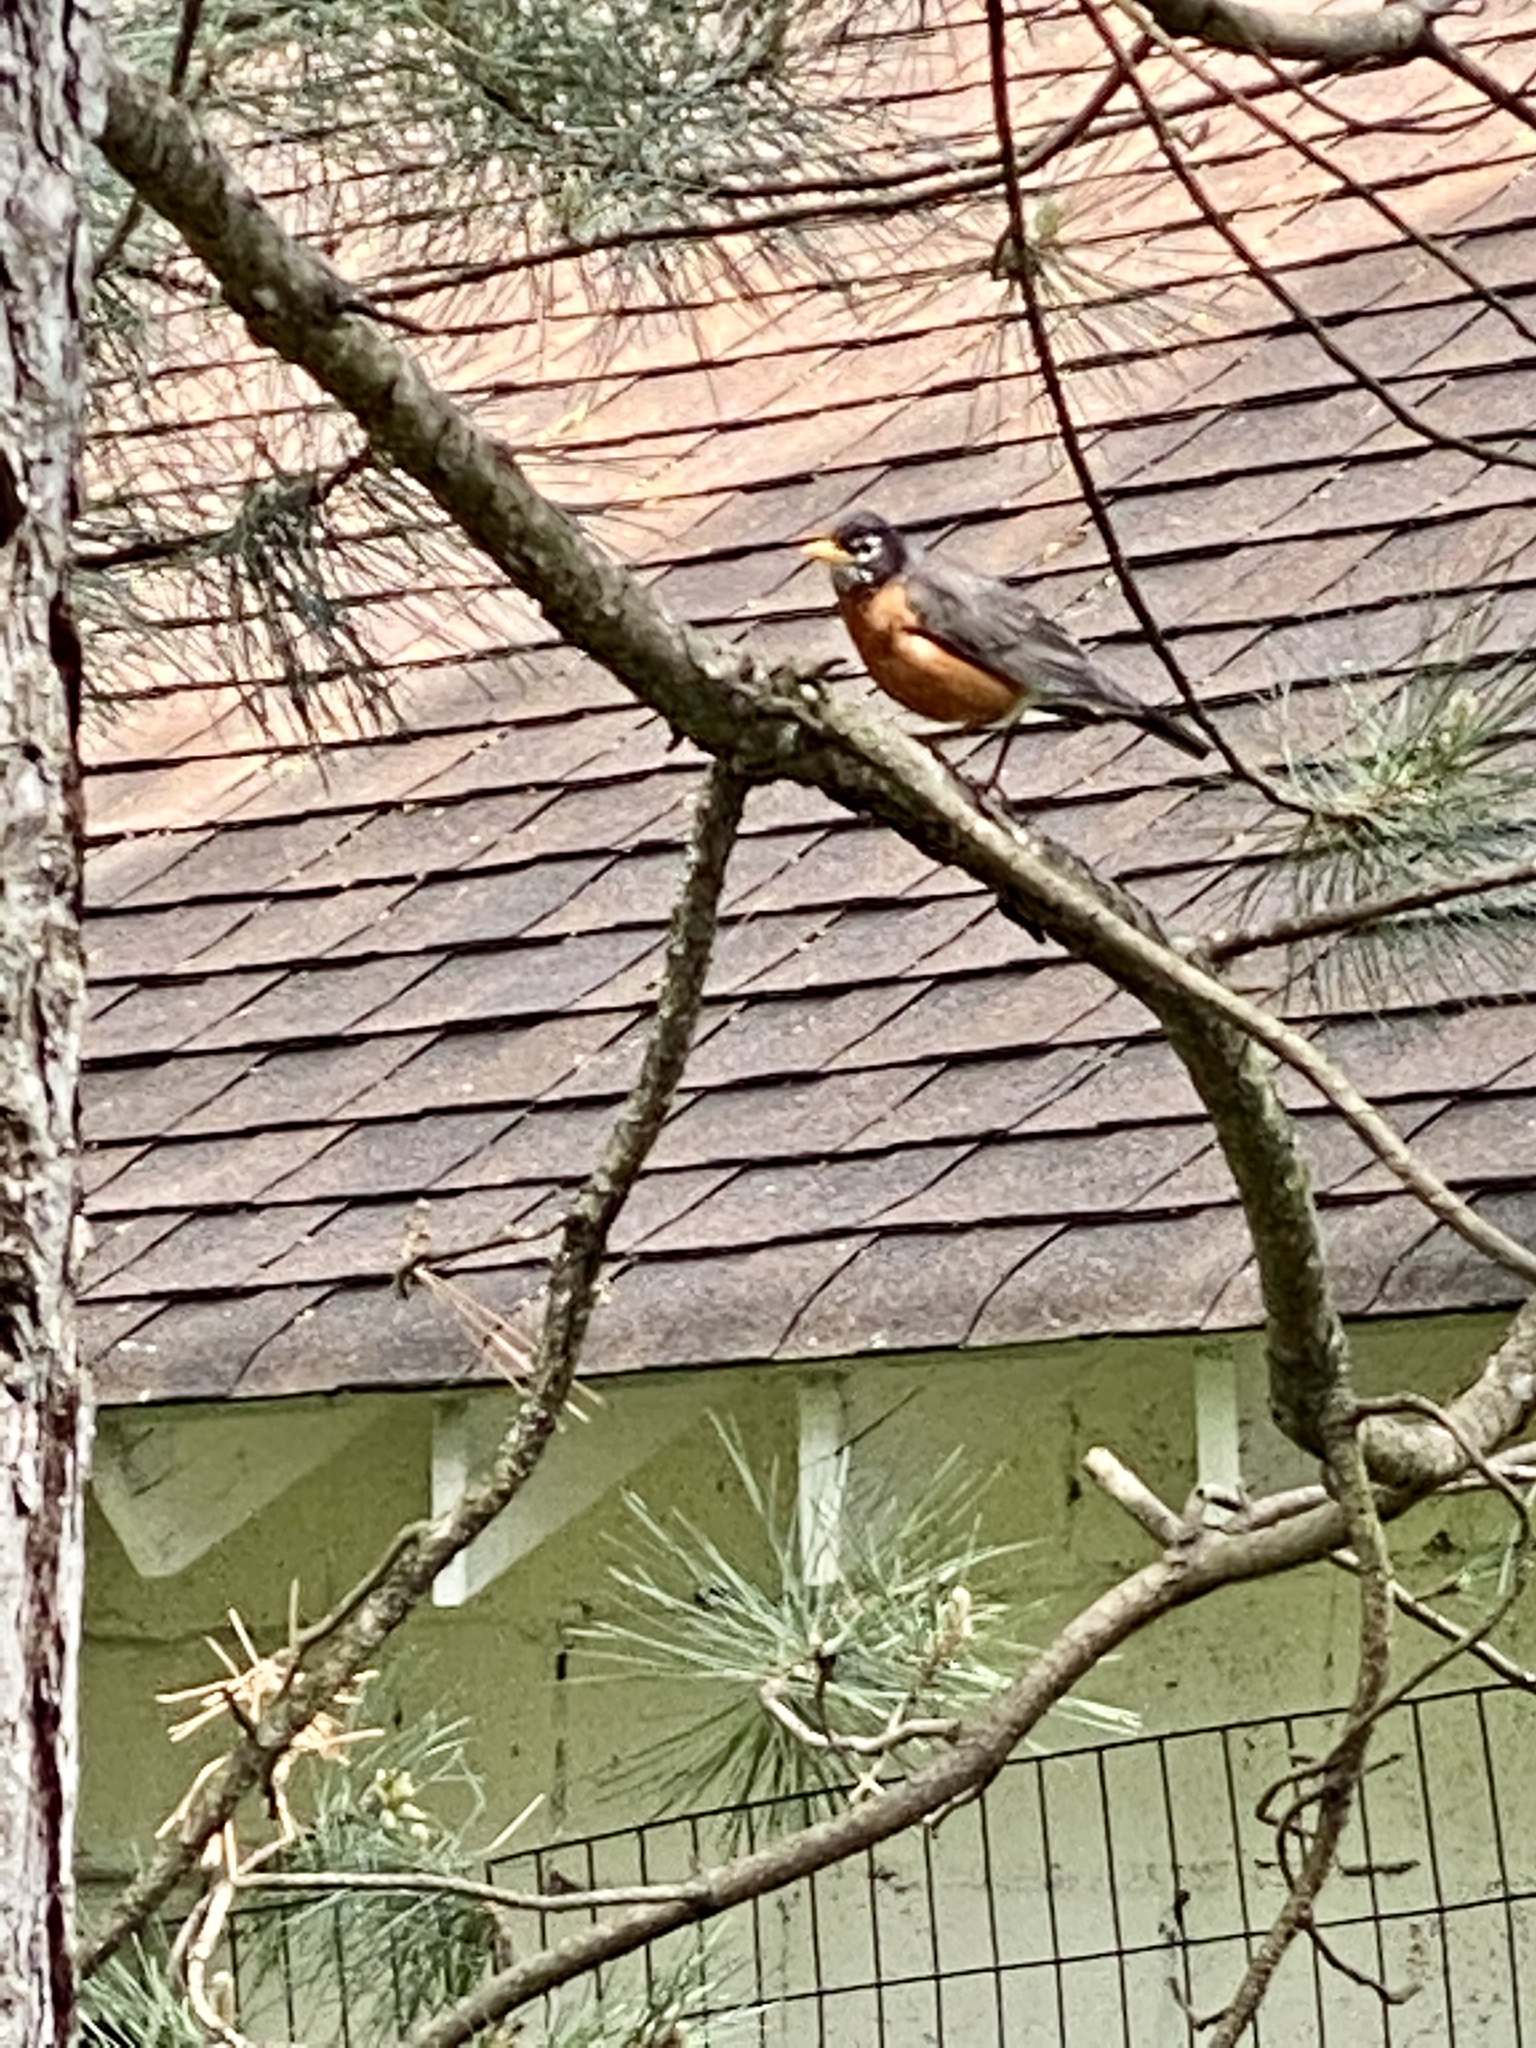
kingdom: Animalia
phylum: Chordata
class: Aves
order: Passeriformes
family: Turdidae
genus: Turdus
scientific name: Turdus migratorius
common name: American robin
